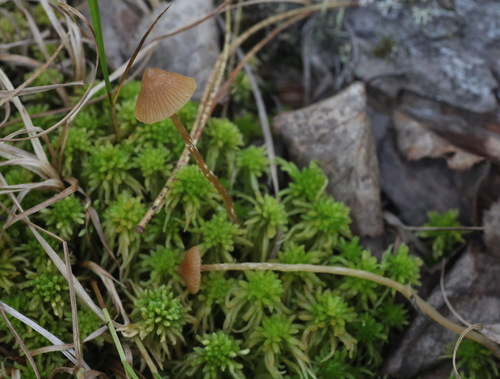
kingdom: Fungi
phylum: Basidiomycota
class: Agaricomycetes
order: Agaricales
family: Hymenogastraceae
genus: Galerina
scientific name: Galerina paludosa
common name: Bog bell
